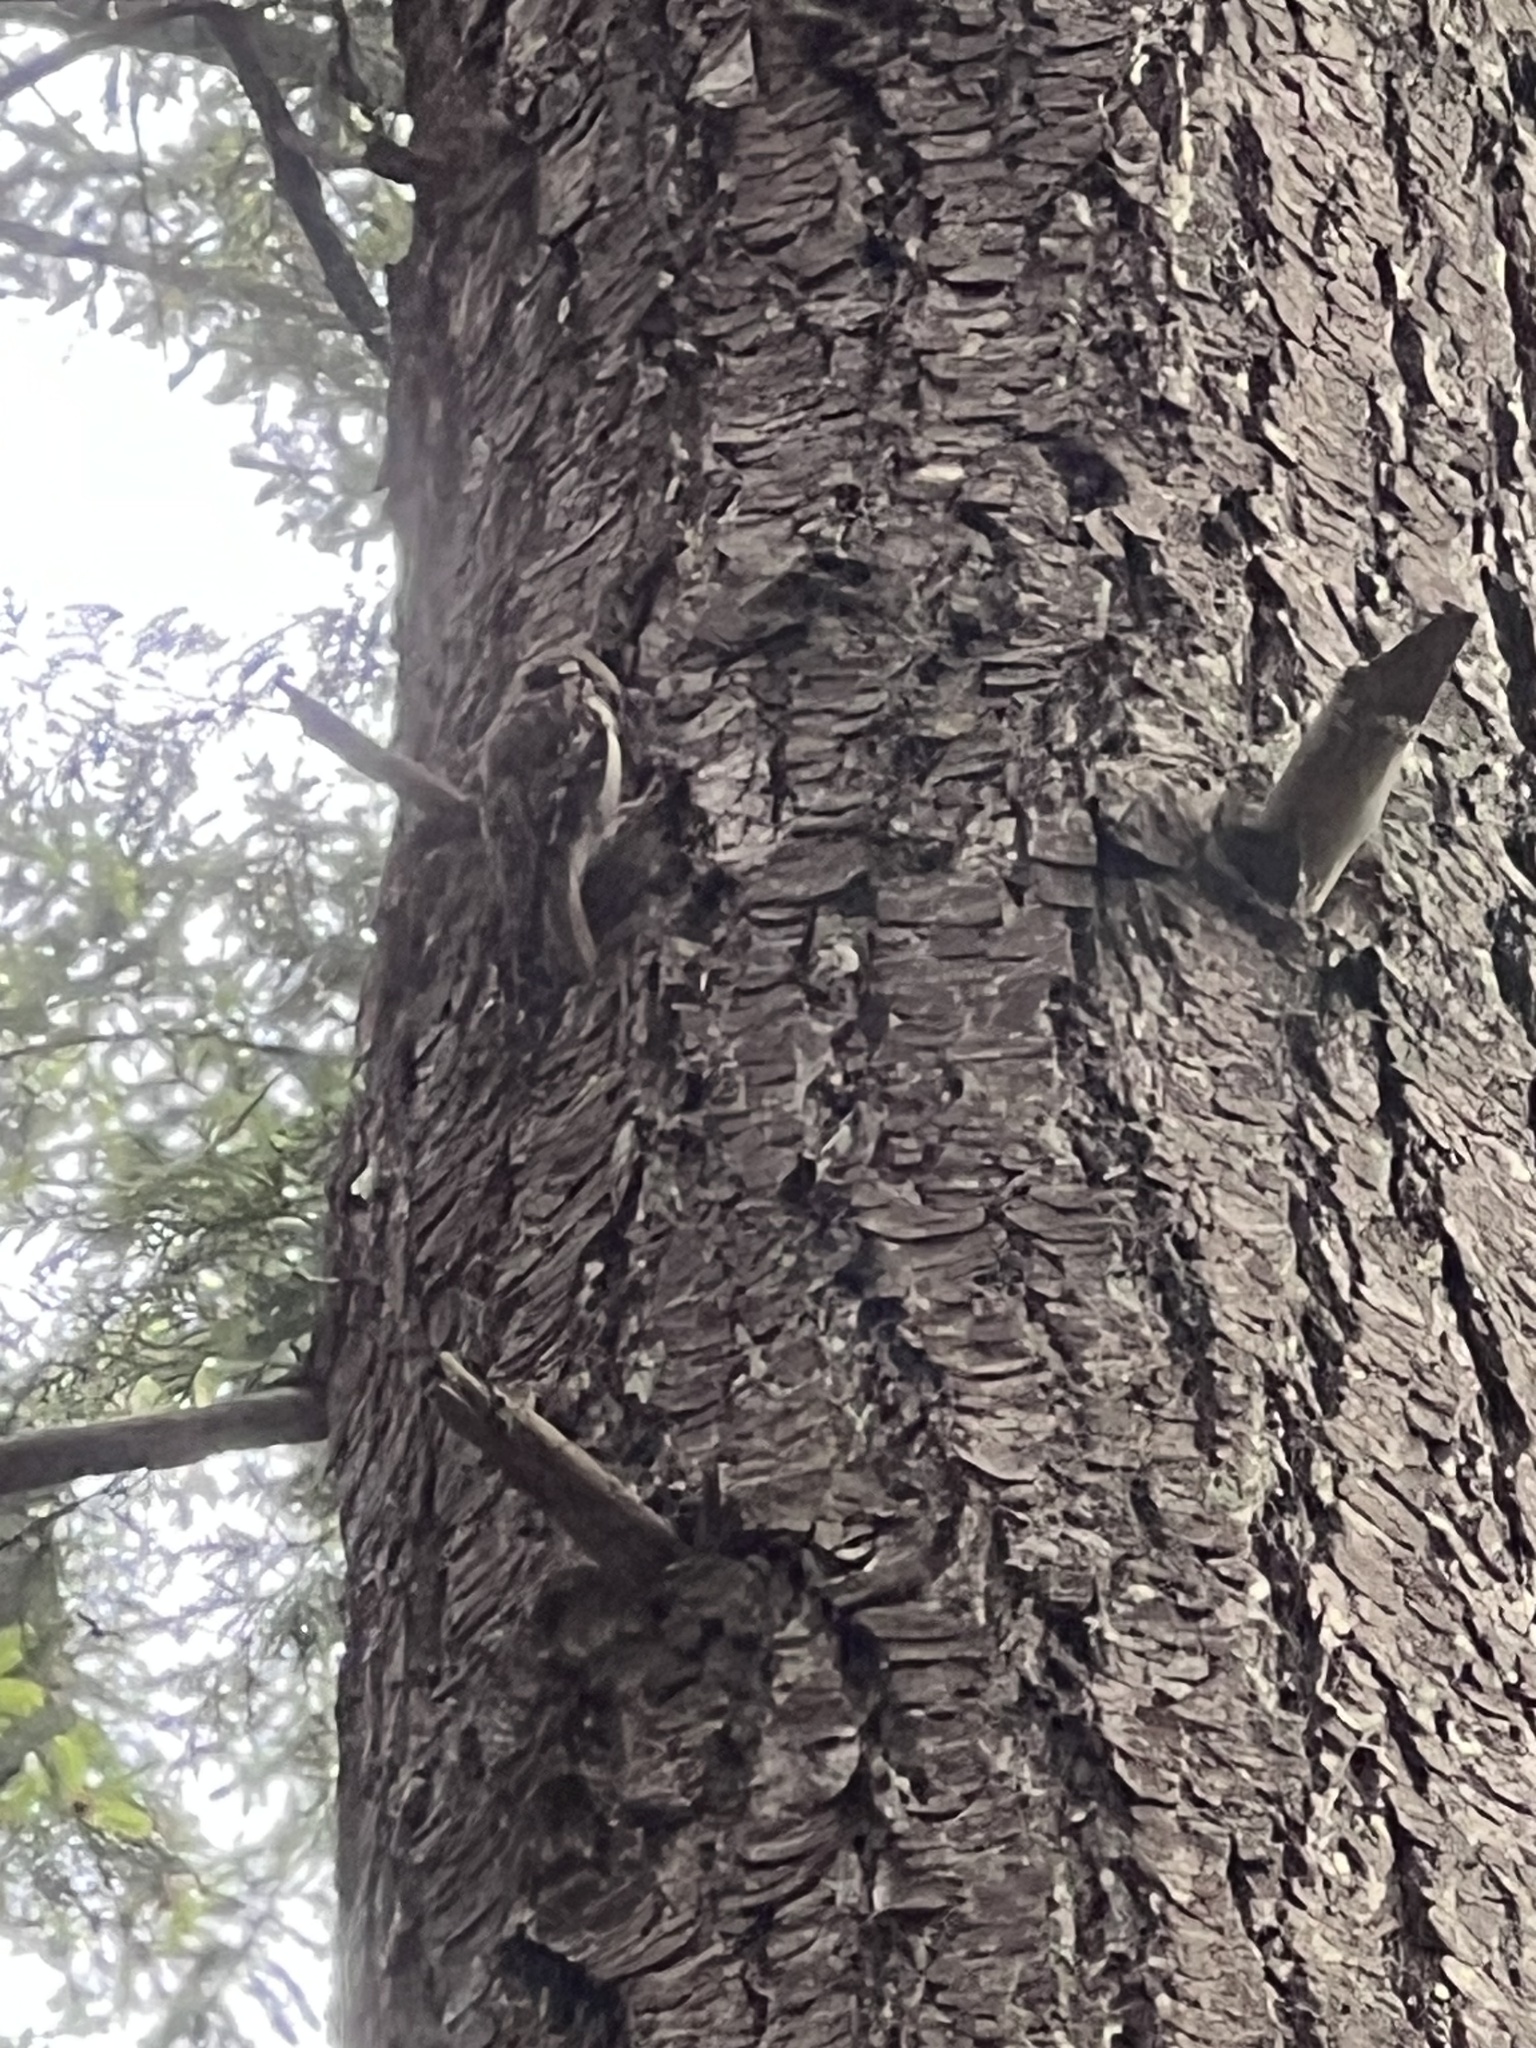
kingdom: Animalia
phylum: Chordata
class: Aves
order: Passeriformes
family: Certhiidae
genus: Certhia
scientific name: Certhia americana
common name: Brown creeper
